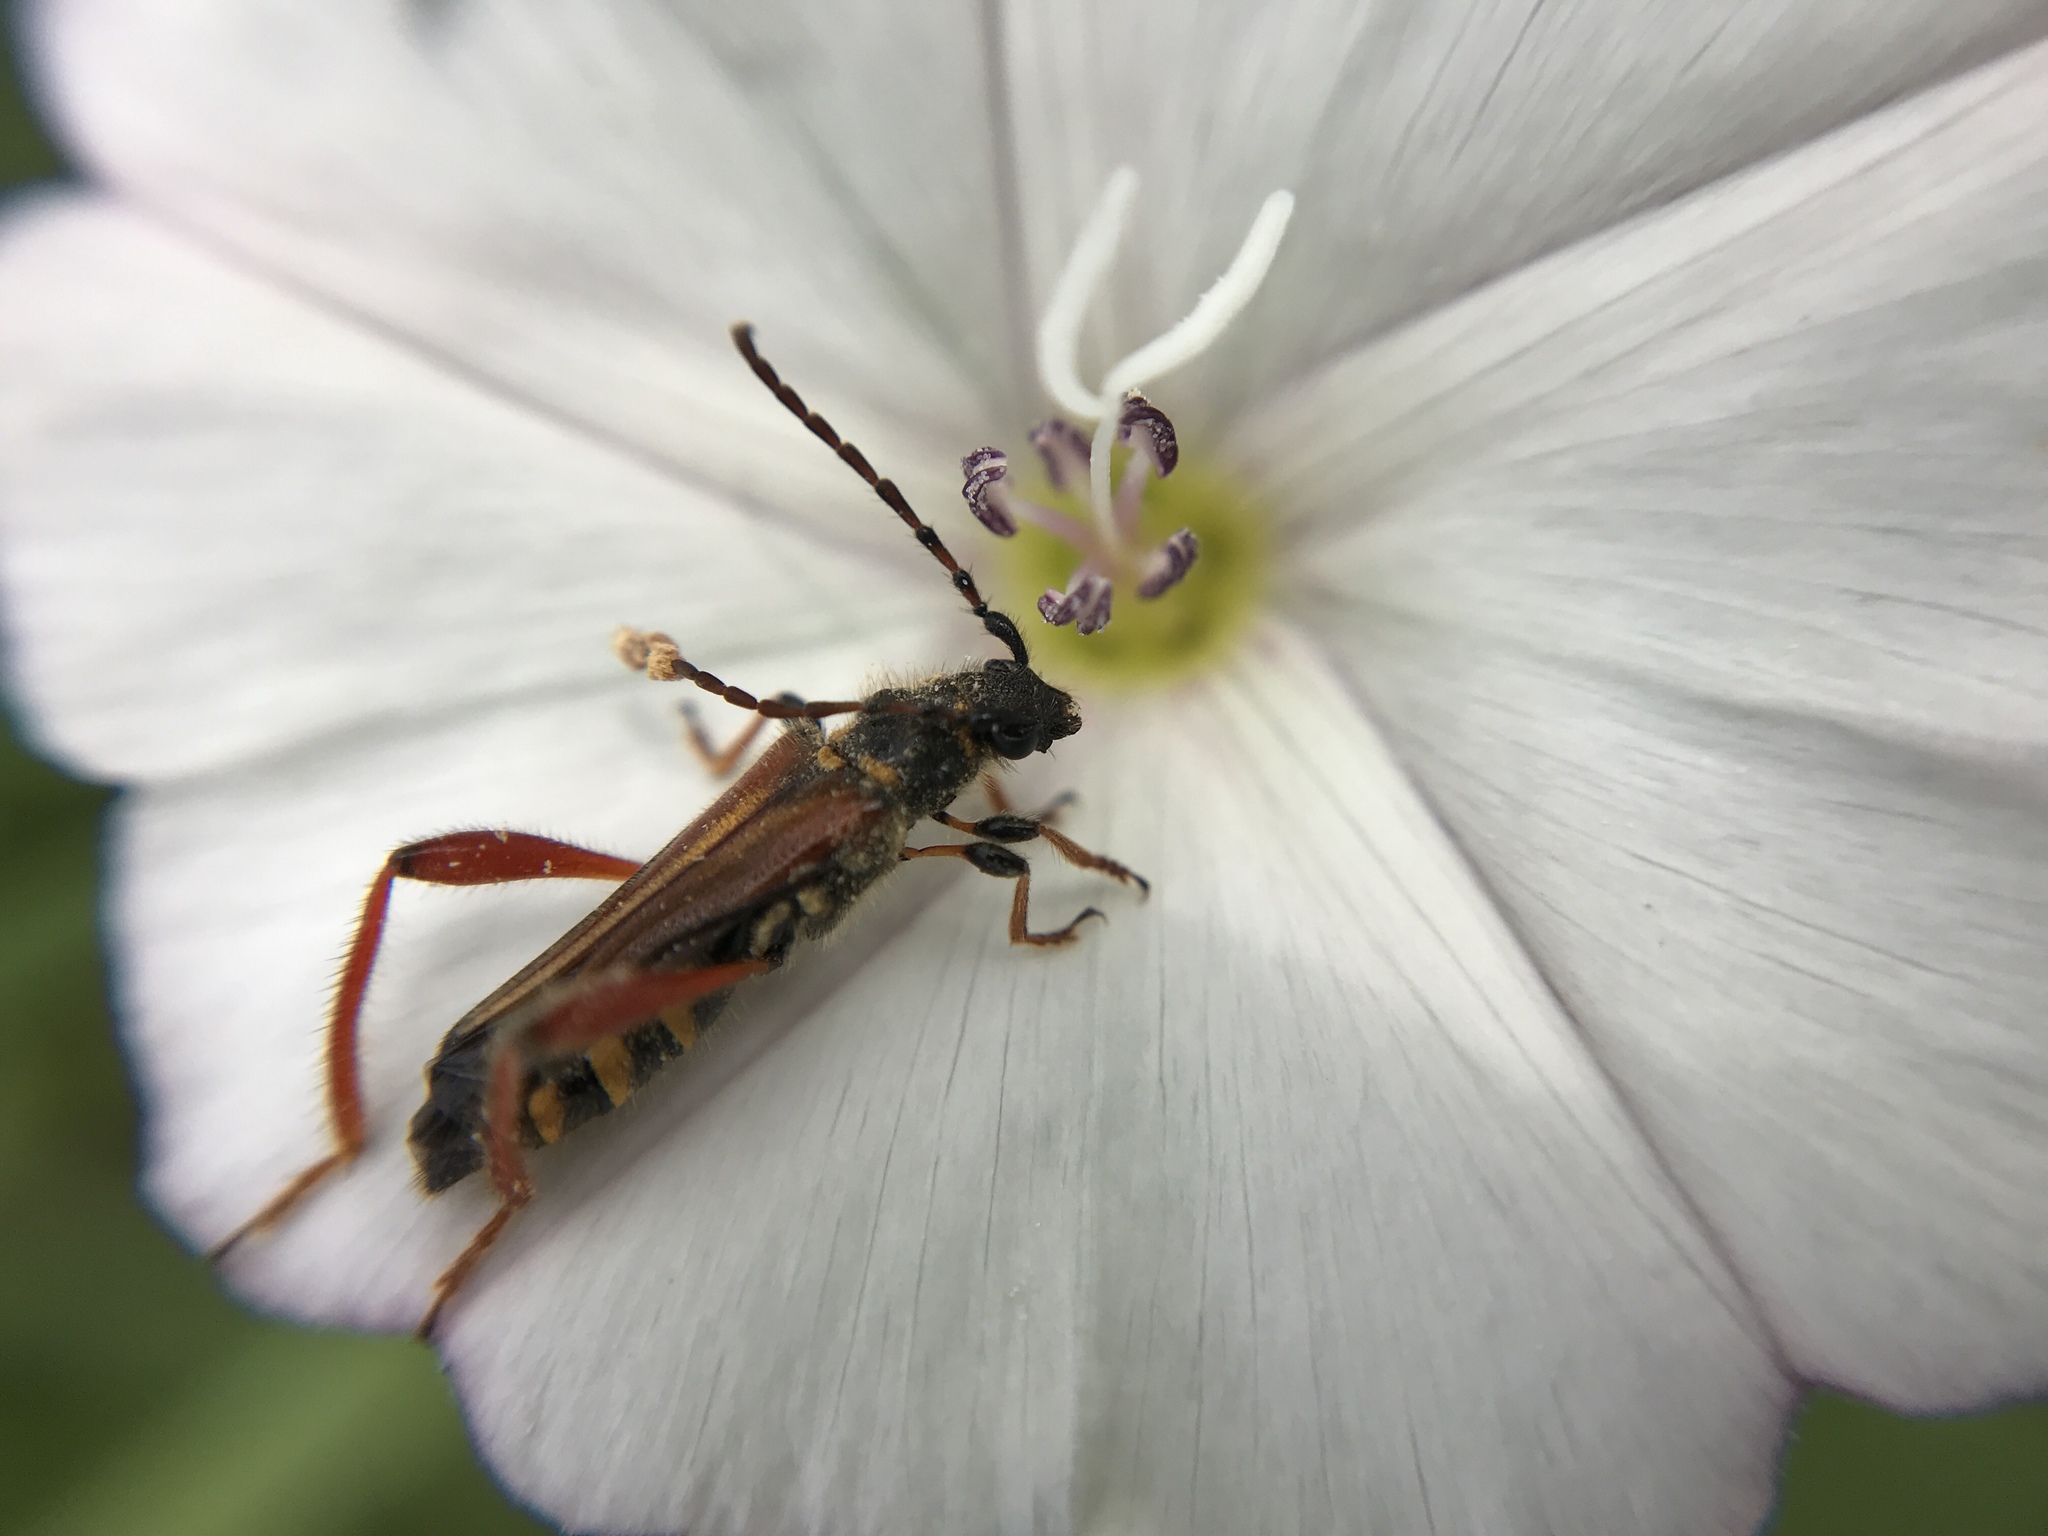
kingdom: Animalia
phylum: Arthropoda
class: Insecta
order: Coleoptera
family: Cerambycidae
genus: Stenopterus
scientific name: Stenopterus rufus
